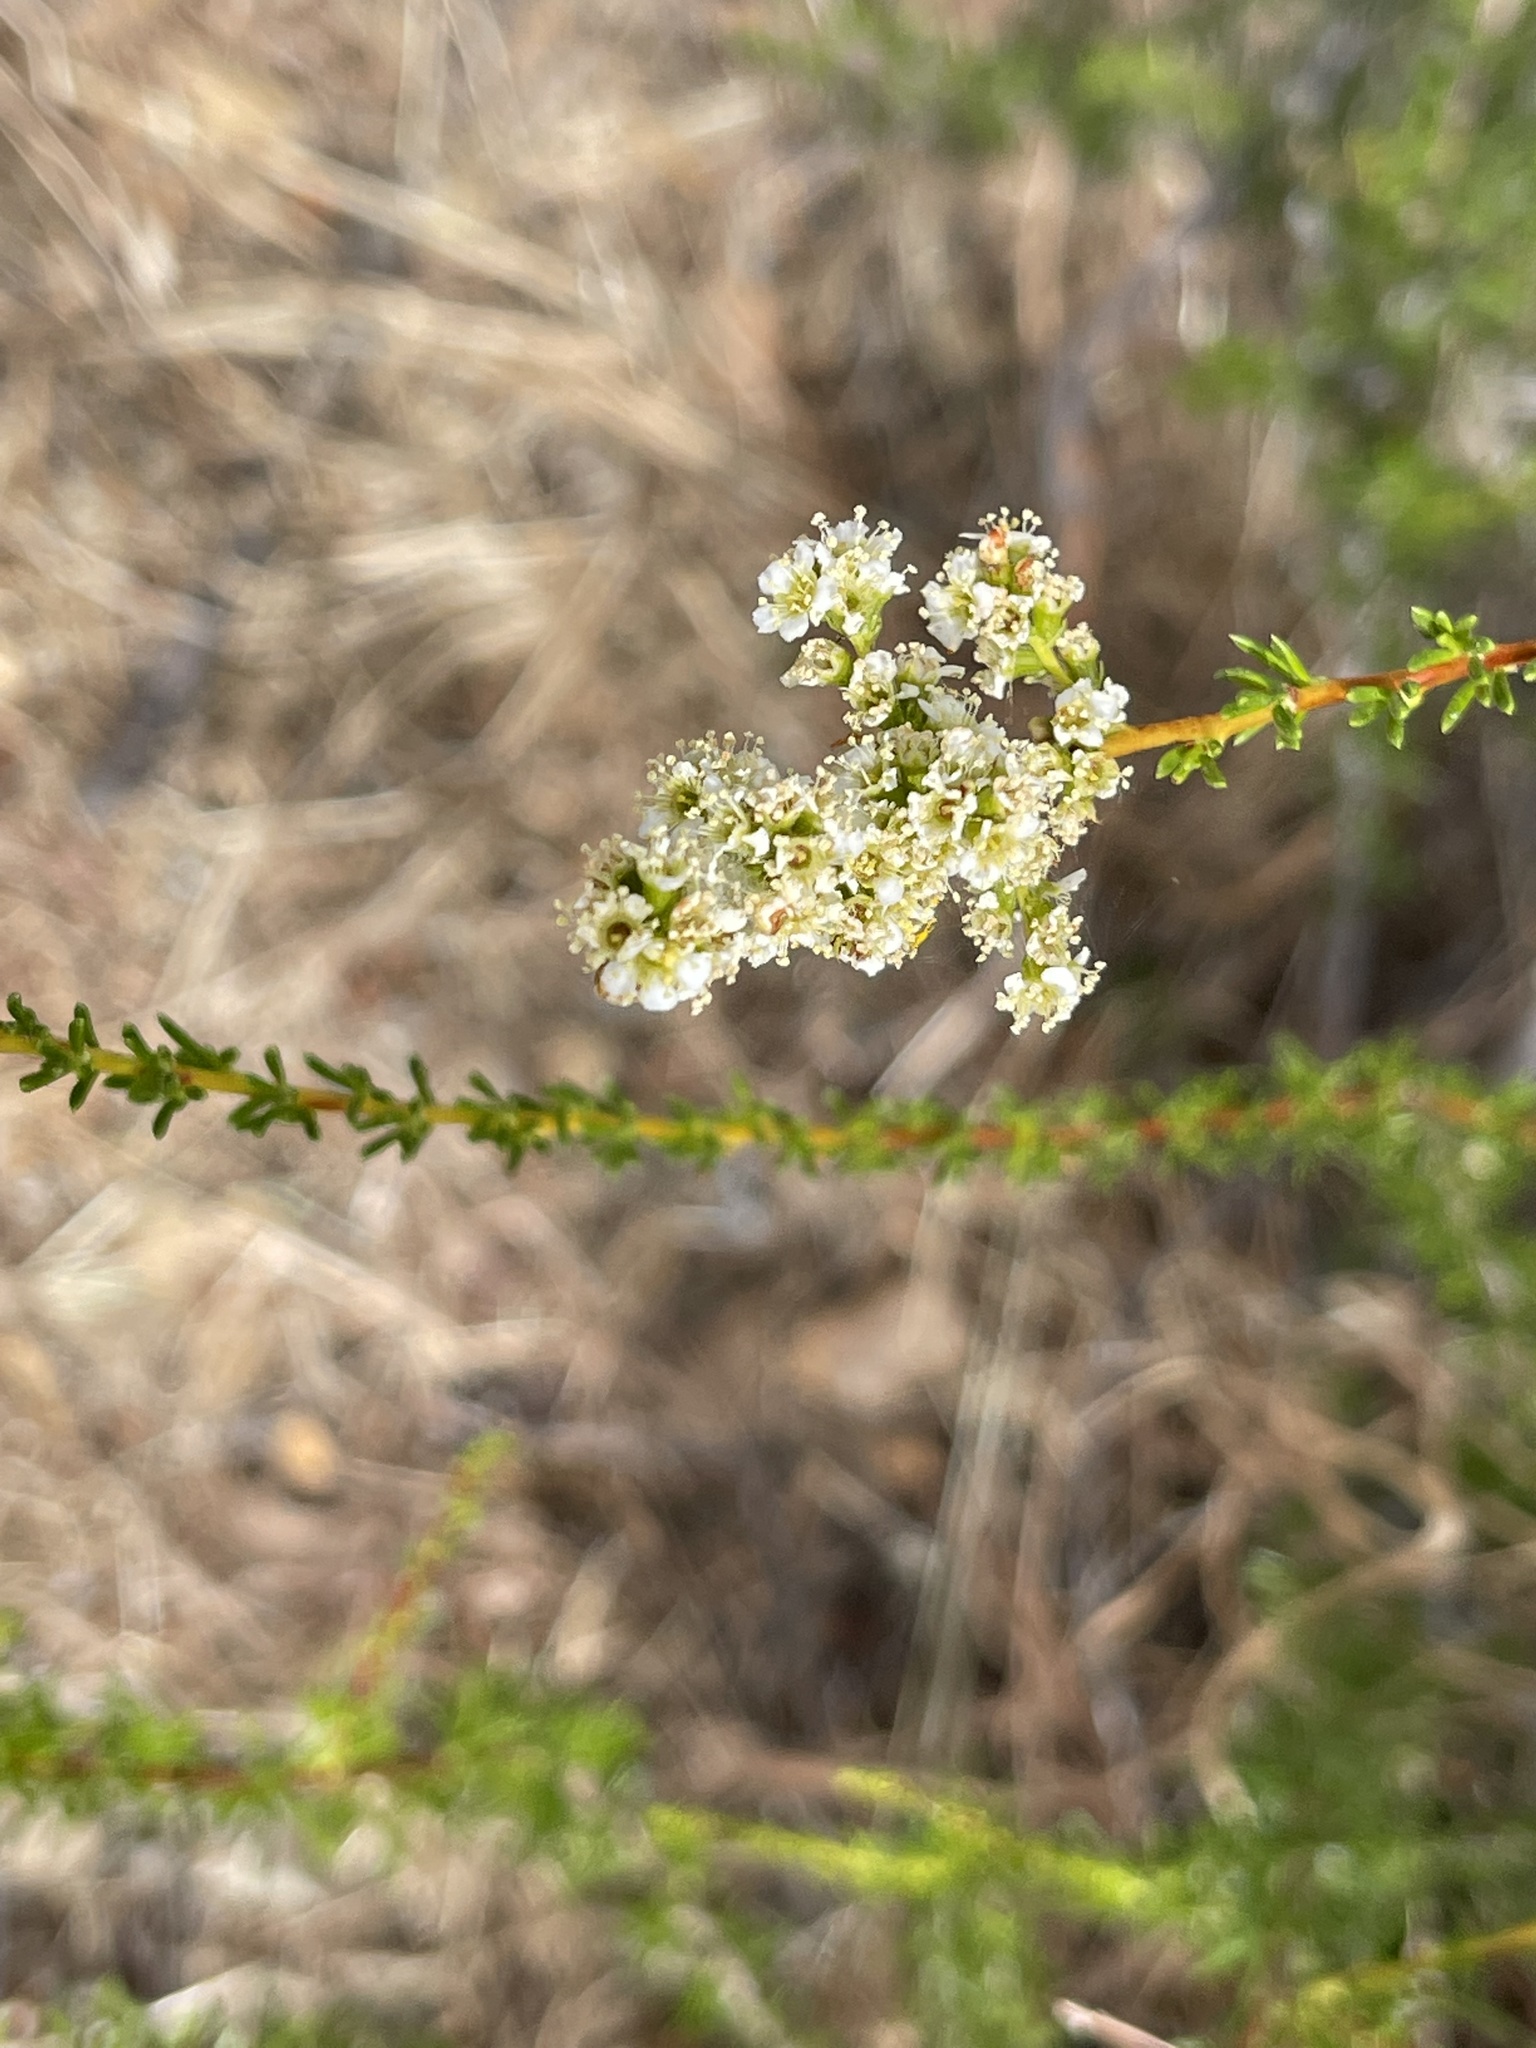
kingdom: Plantae
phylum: Tracheophyta
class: Magnoliopsida
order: Rosales
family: Rosaceae
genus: Adenostoma
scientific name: Adenostoma fasciculatum
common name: Chamise
